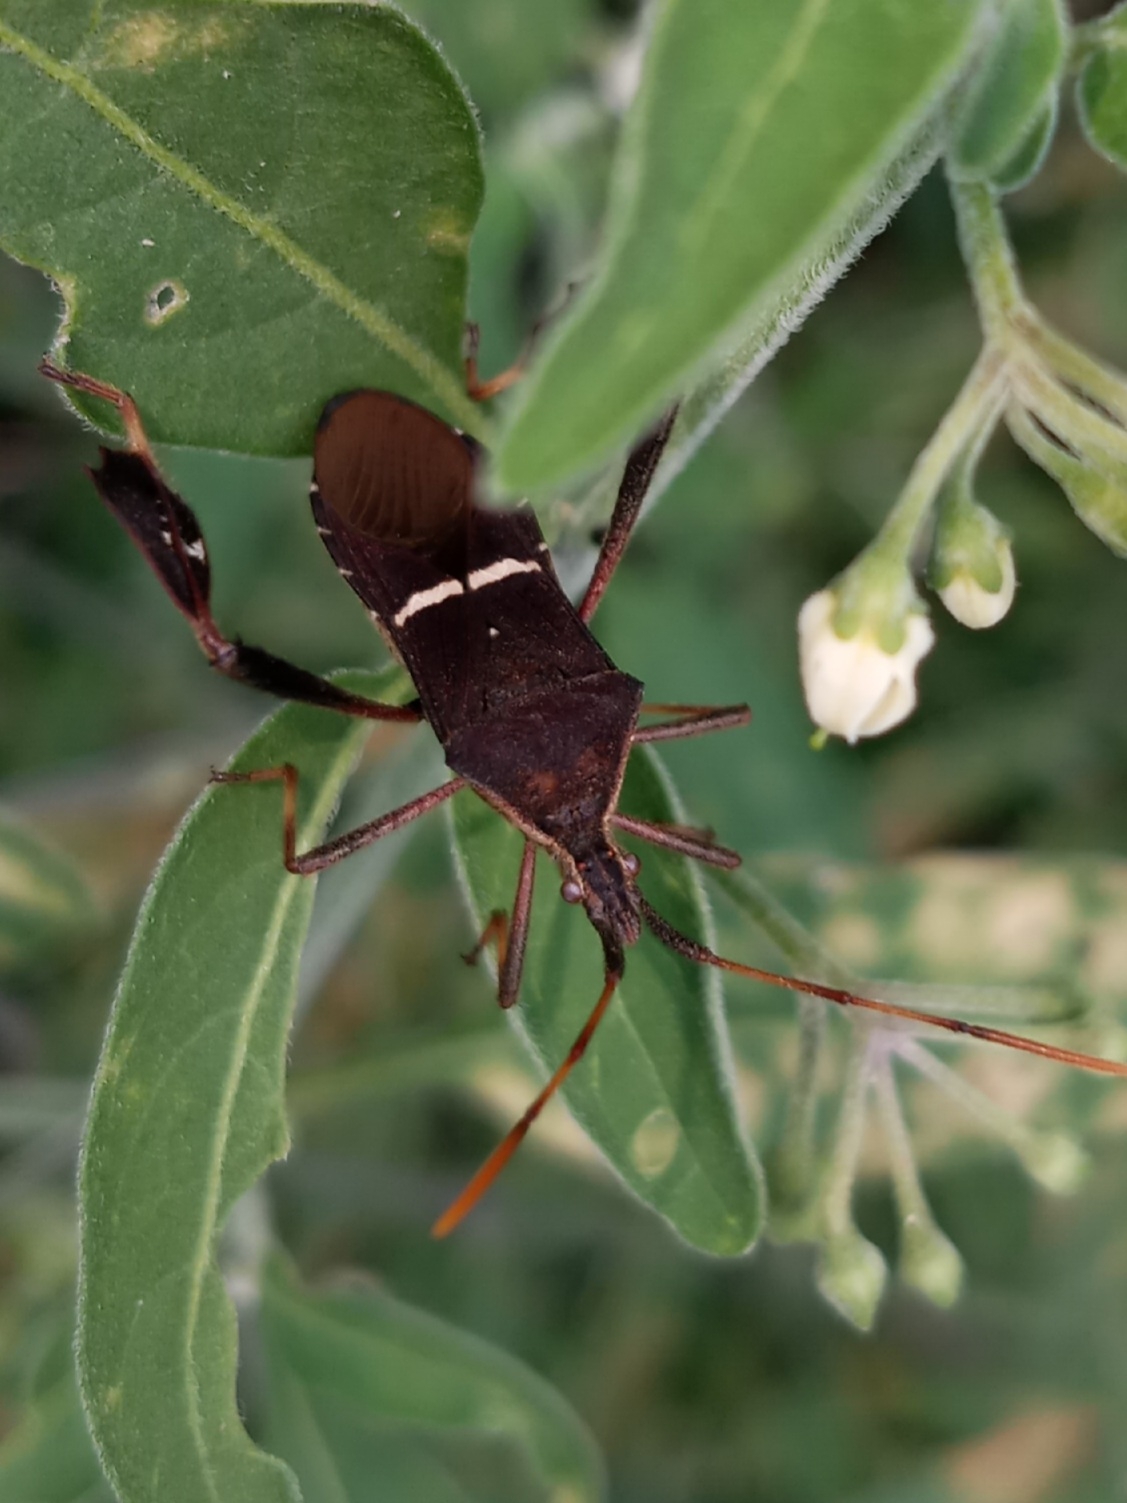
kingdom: Animalia
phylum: Arthropoda
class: Insecta
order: Hemiptera
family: Coreidae
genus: Leptoglossus
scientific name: Leptoglossus phyllopus
